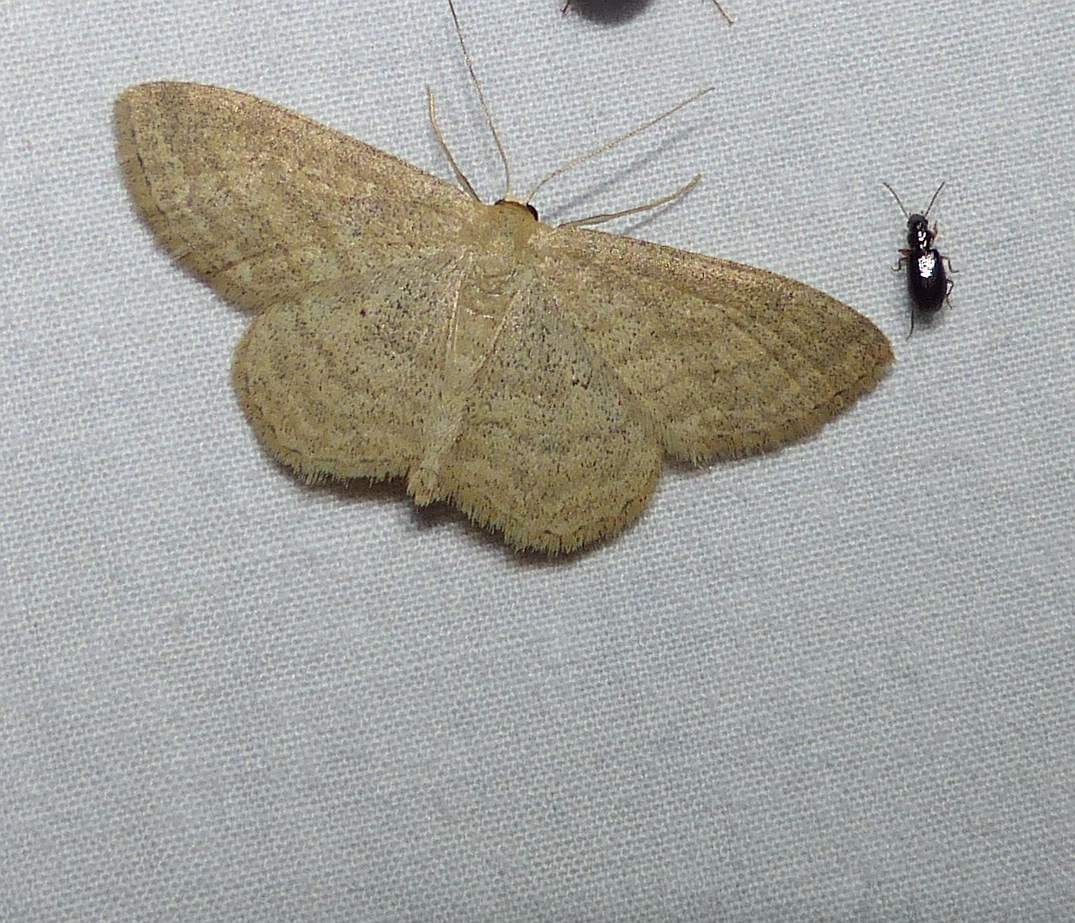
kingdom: Animalia
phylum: Arthropoda
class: Insecta
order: Lepidoptera
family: Geometridae
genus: Scopula
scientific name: Scopula inductata
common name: Soft-lined wave
